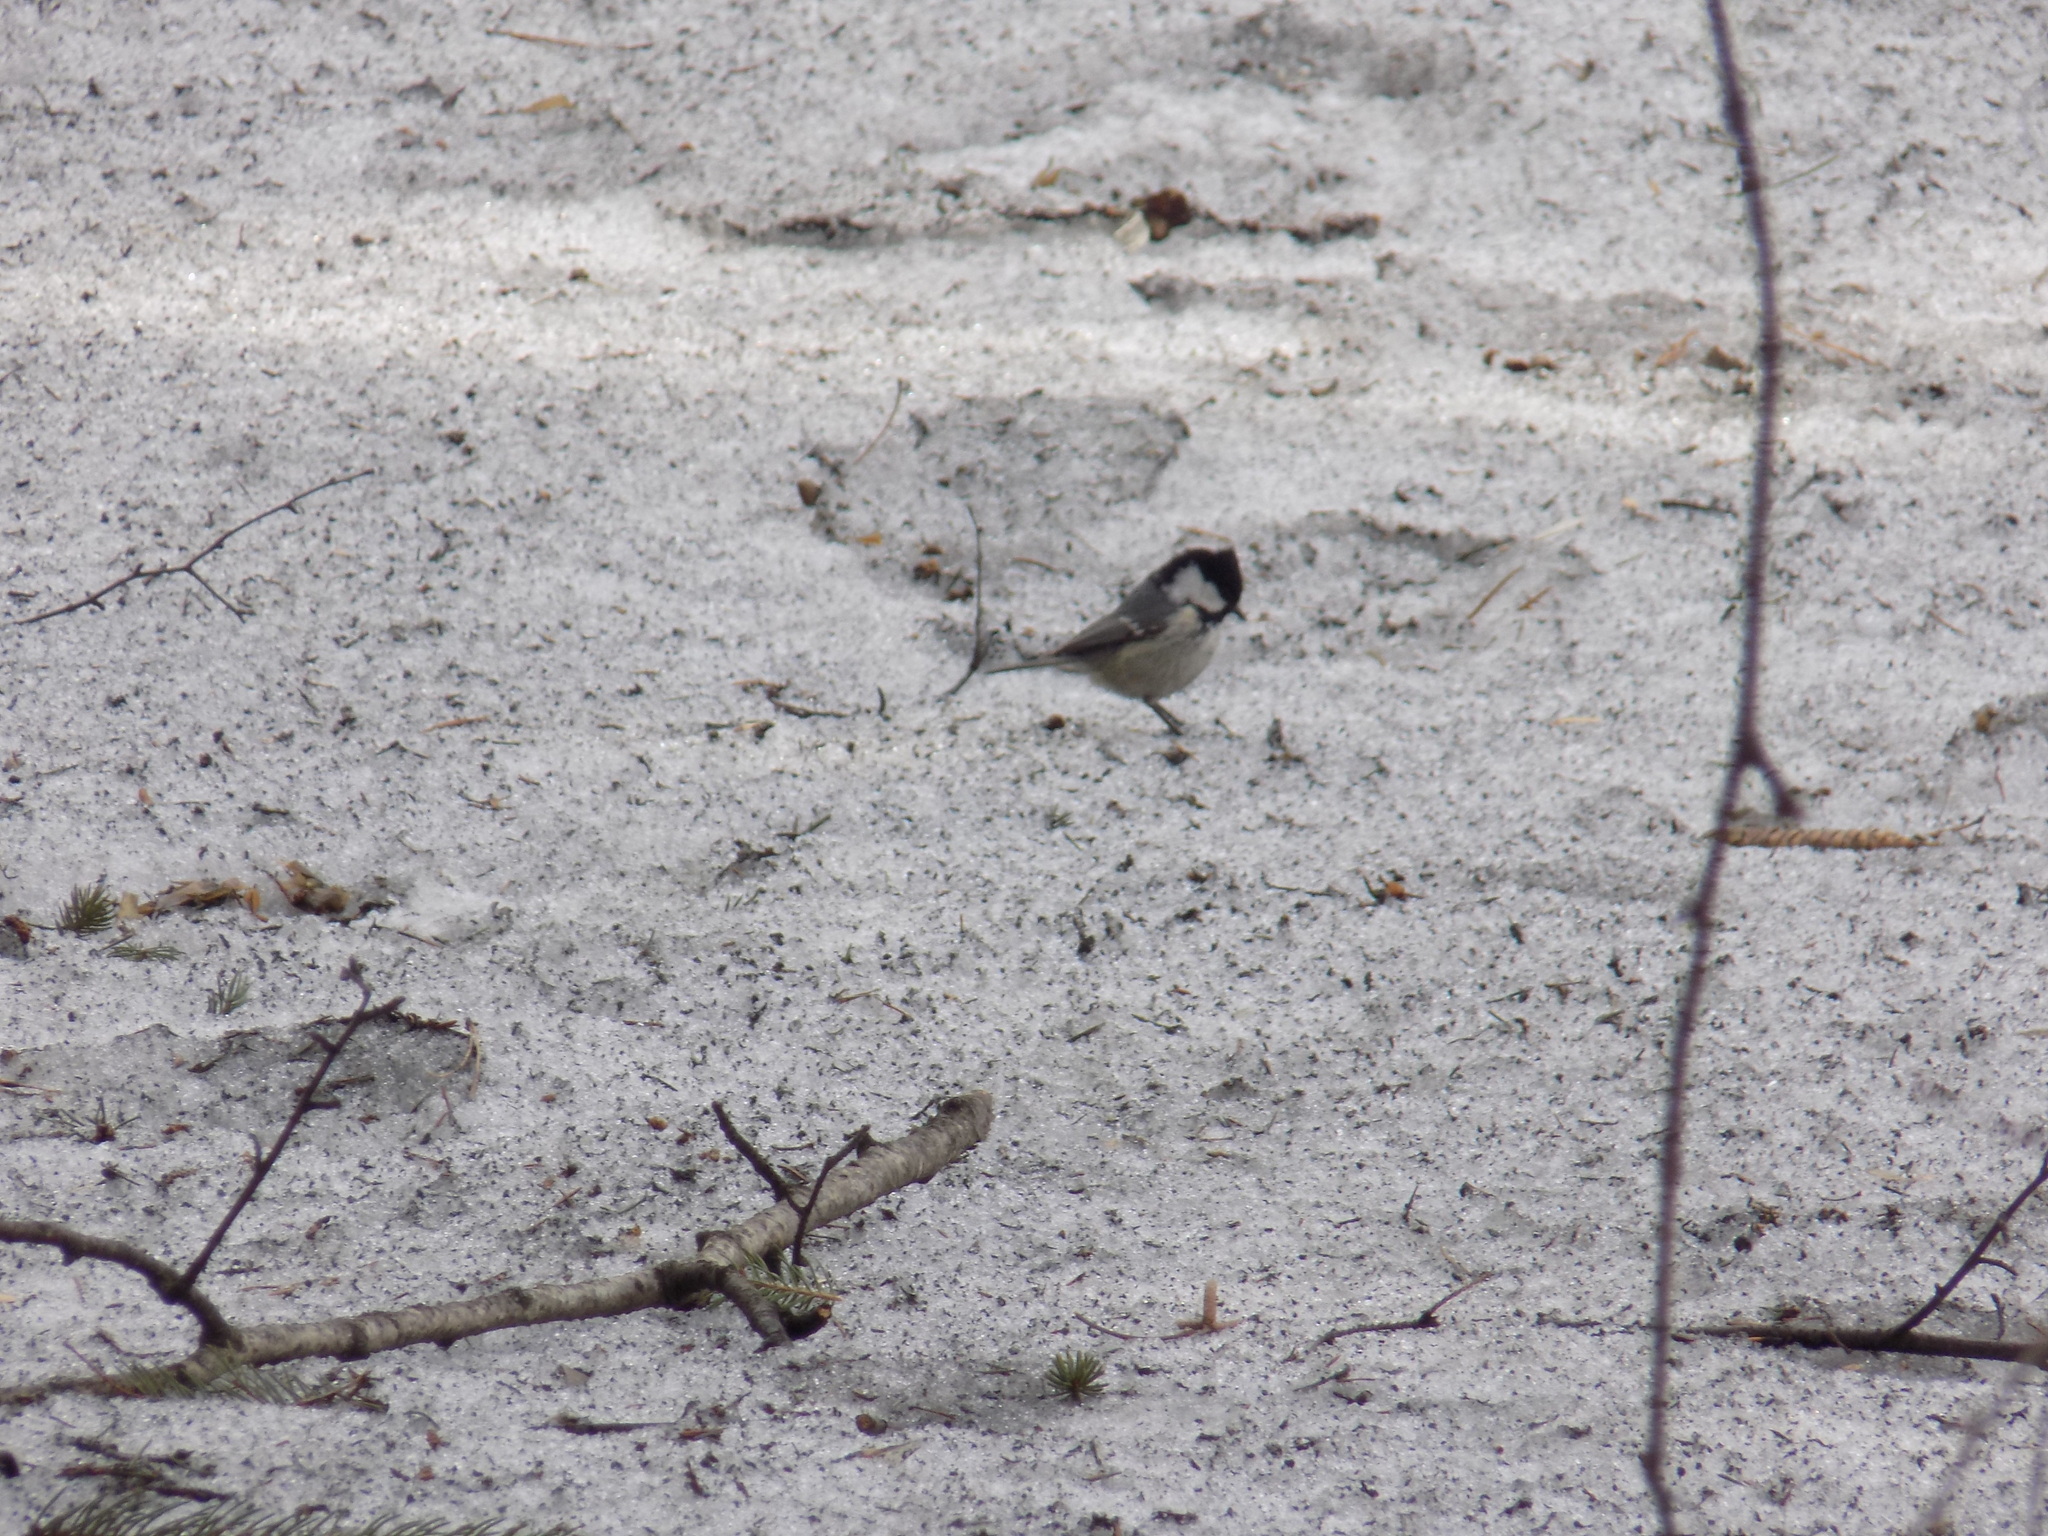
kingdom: Animalia
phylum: Chordata
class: Aves
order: Passeriformes
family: Paridae
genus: Periparus
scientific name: Periparus ater
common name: Coal tit
